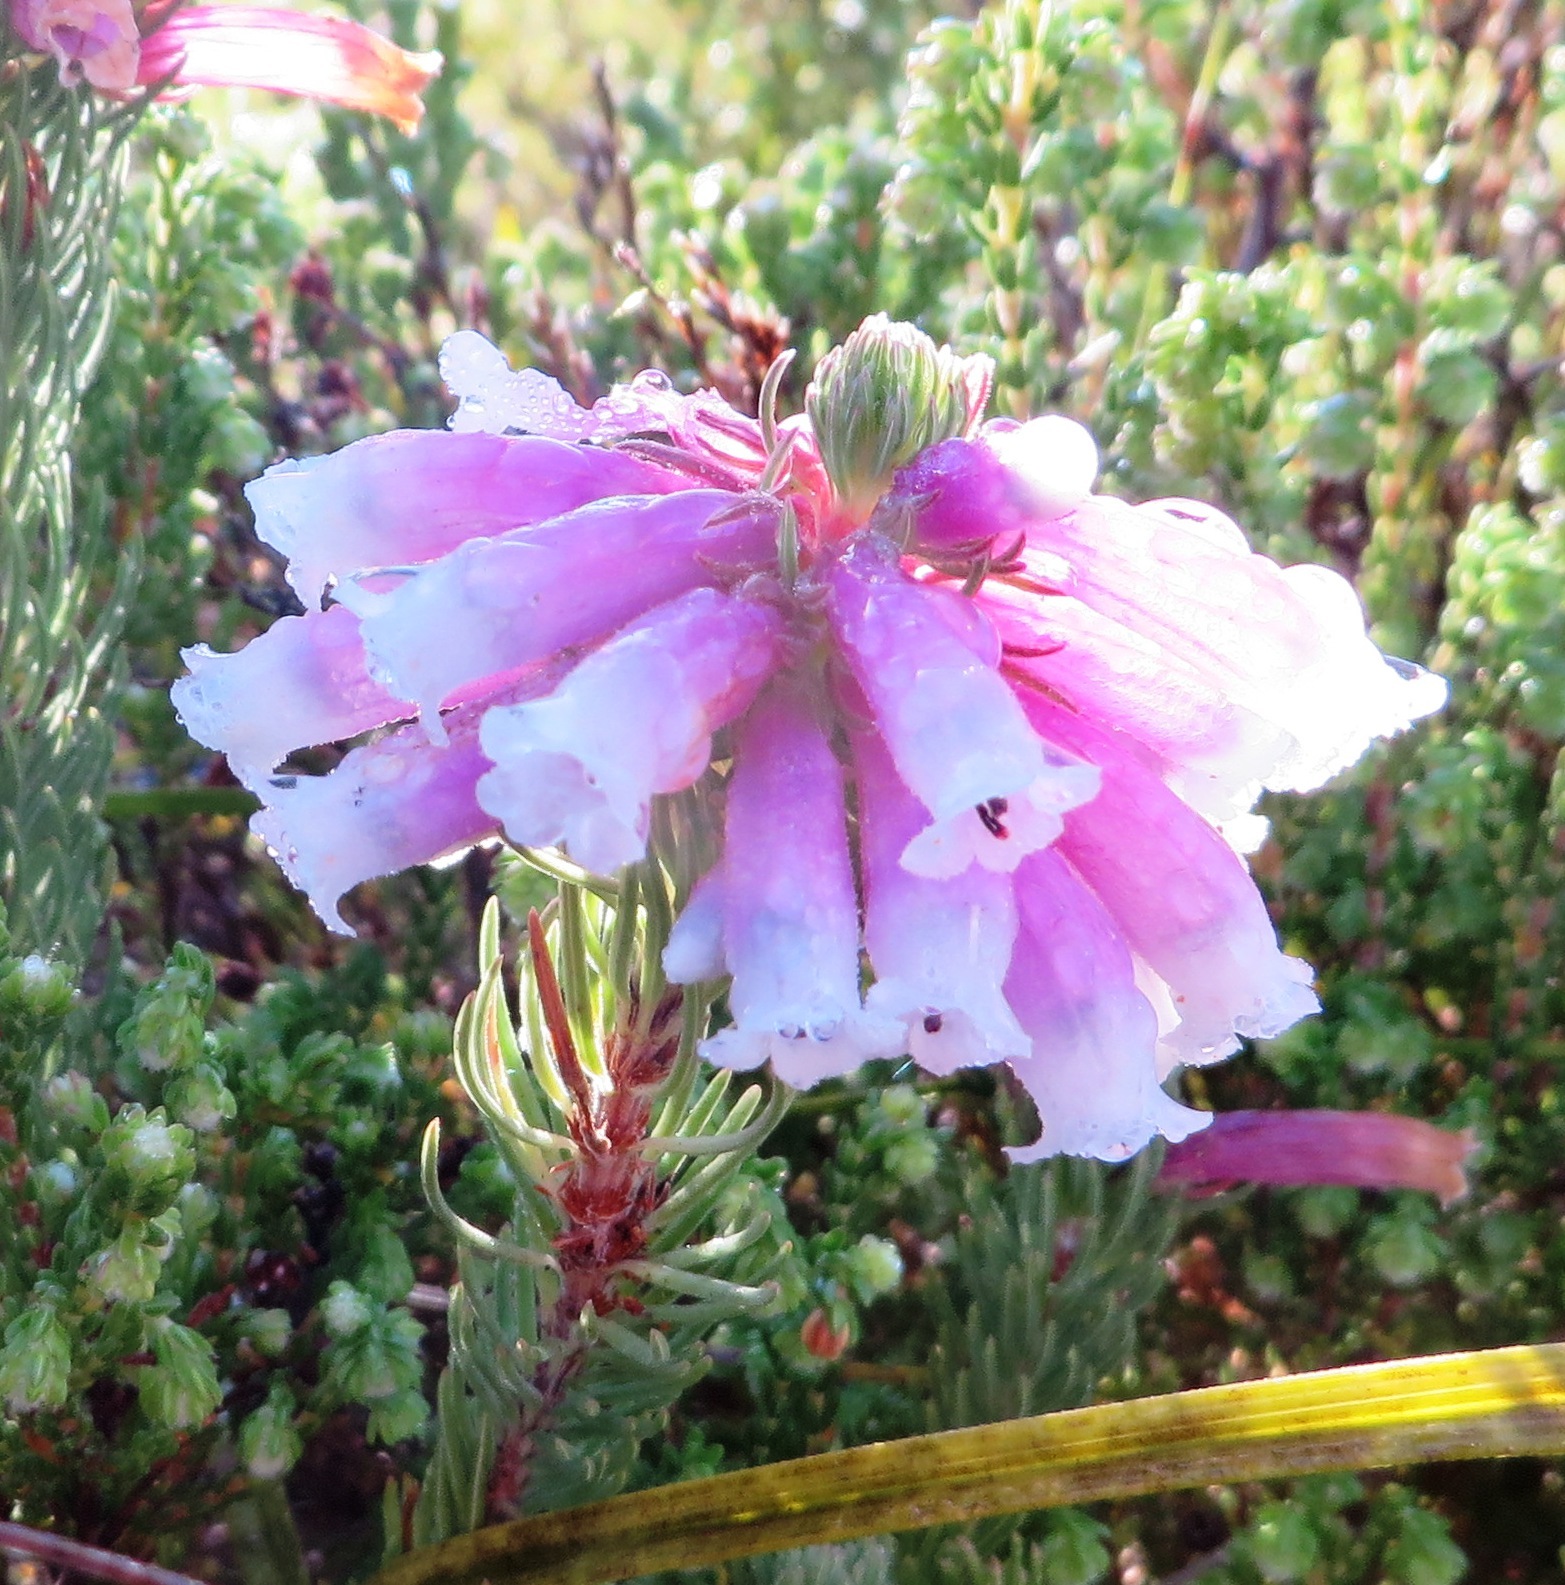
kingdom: Plantae
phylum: Tracheophyta
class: Magnoliopsida
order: Ericales
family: Ericaceae
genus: Erica
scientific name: Erica viscaria
